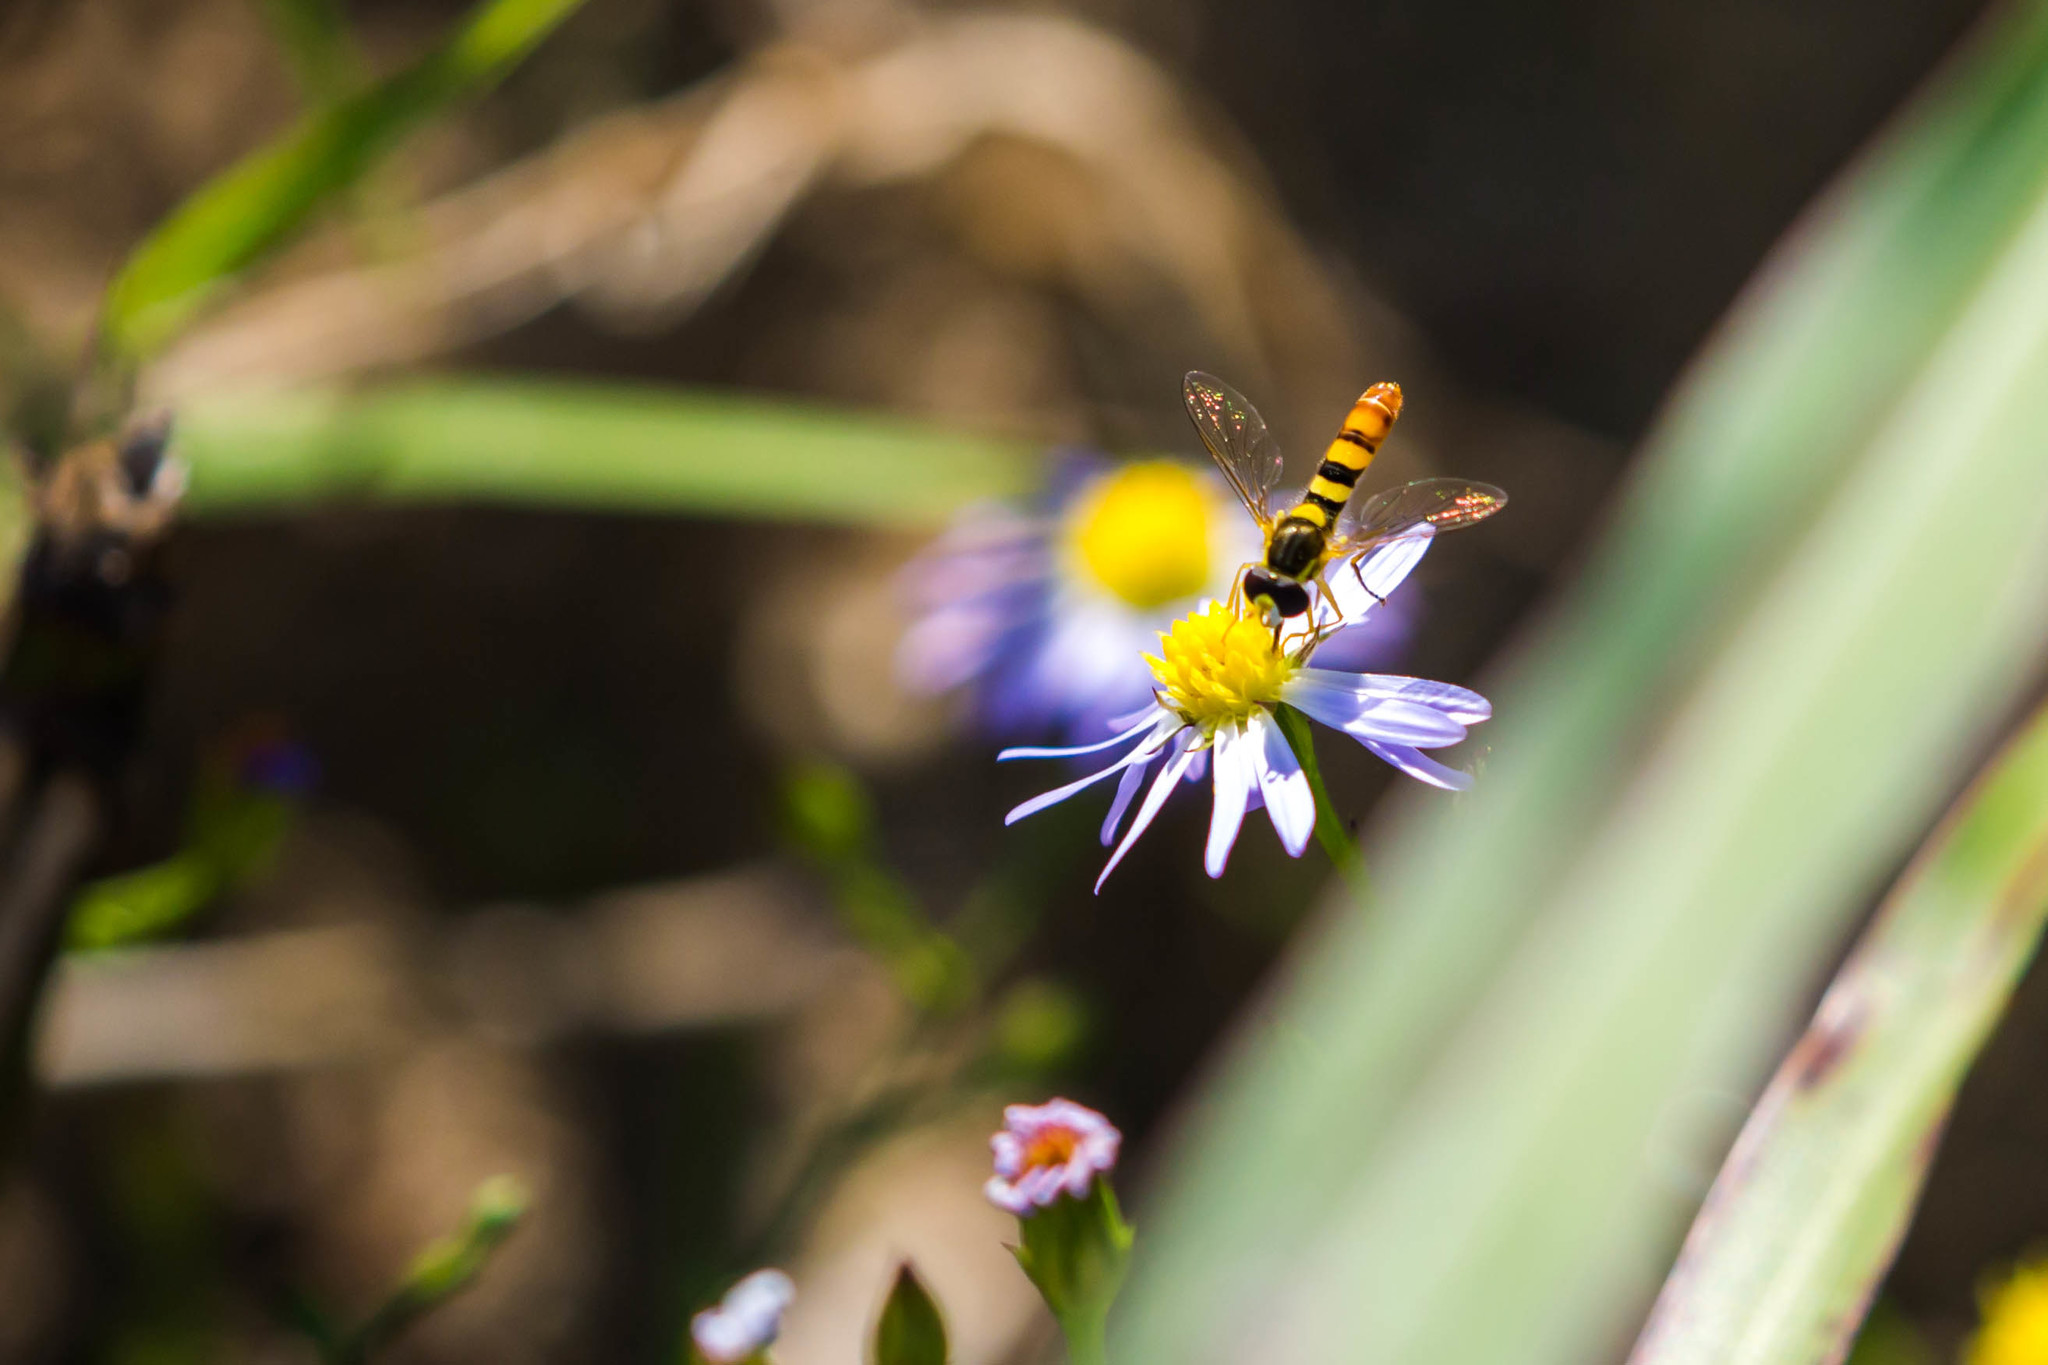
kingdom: Animalia
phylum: Arthropoda
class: Insecta
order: Diptera
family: Syrphidae
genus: Sphaerophoria
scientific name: Sphaerophoria contigua
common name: Tufted globetail
